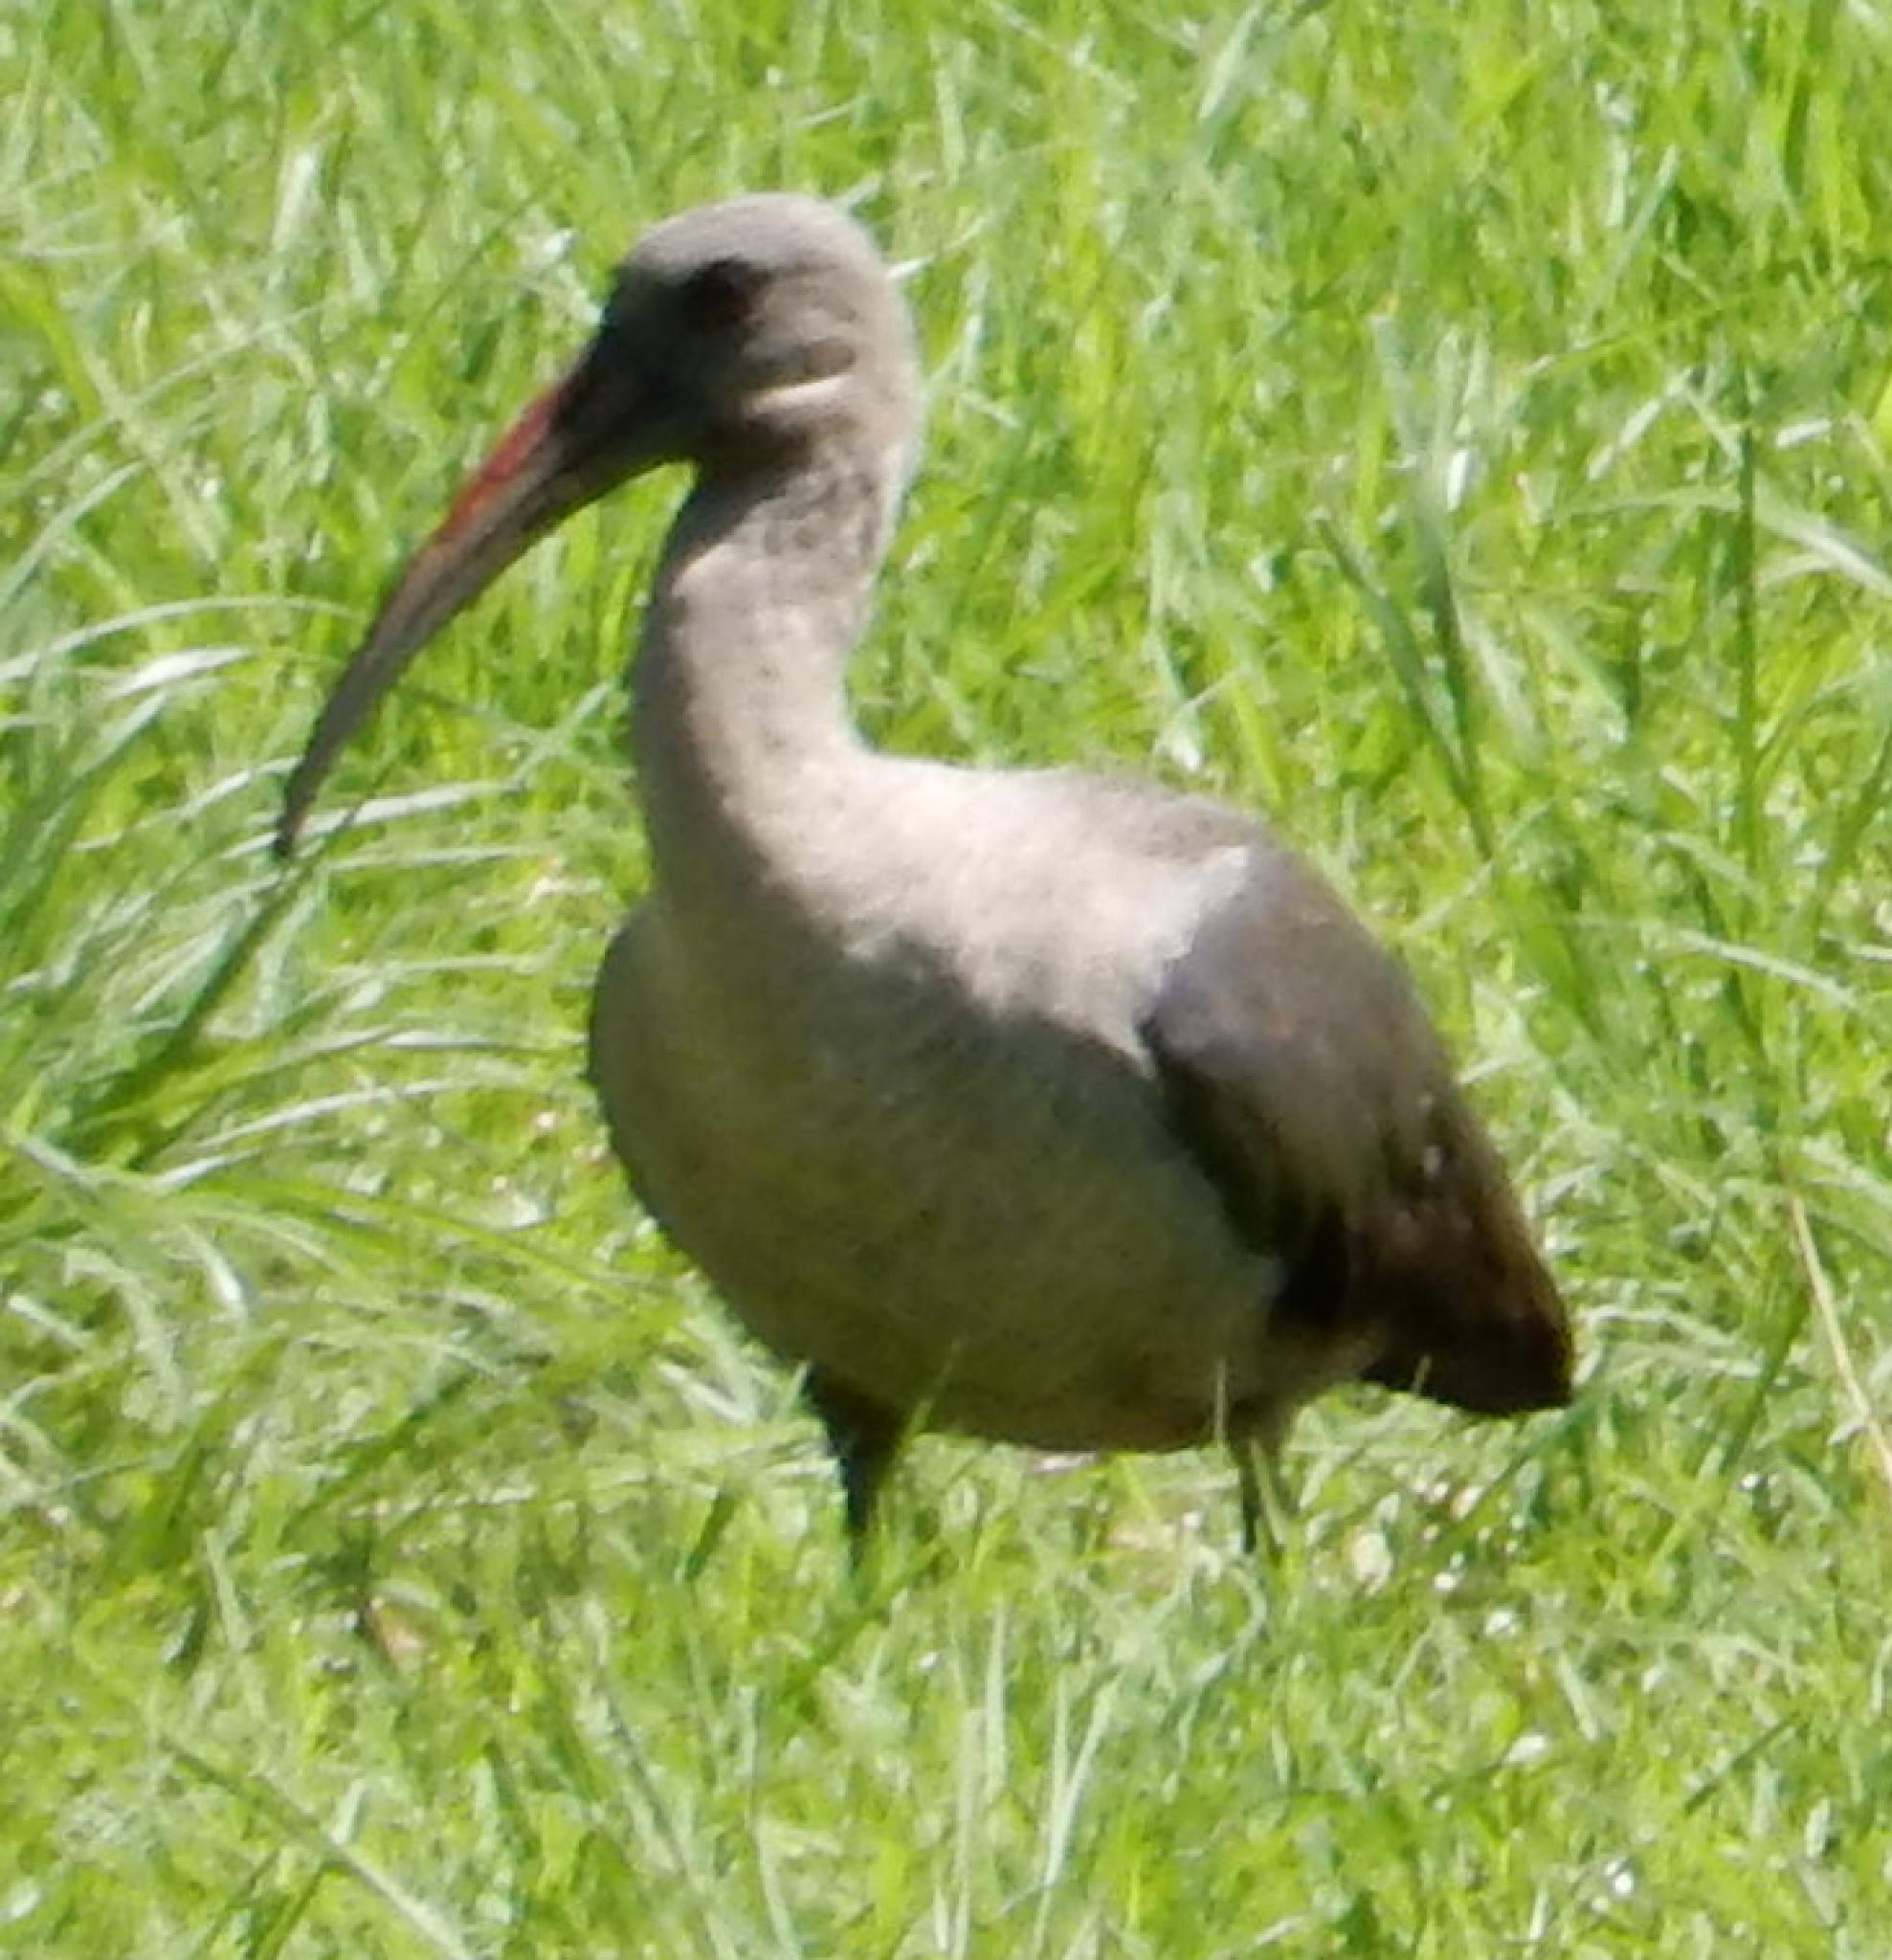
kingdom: Animalia
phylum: Chordata
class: Aves
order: Pelecaniformes
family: Threskiornithidae
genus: Bostrychia
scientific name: Bostrychia hagedash
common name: Hadada ibis
